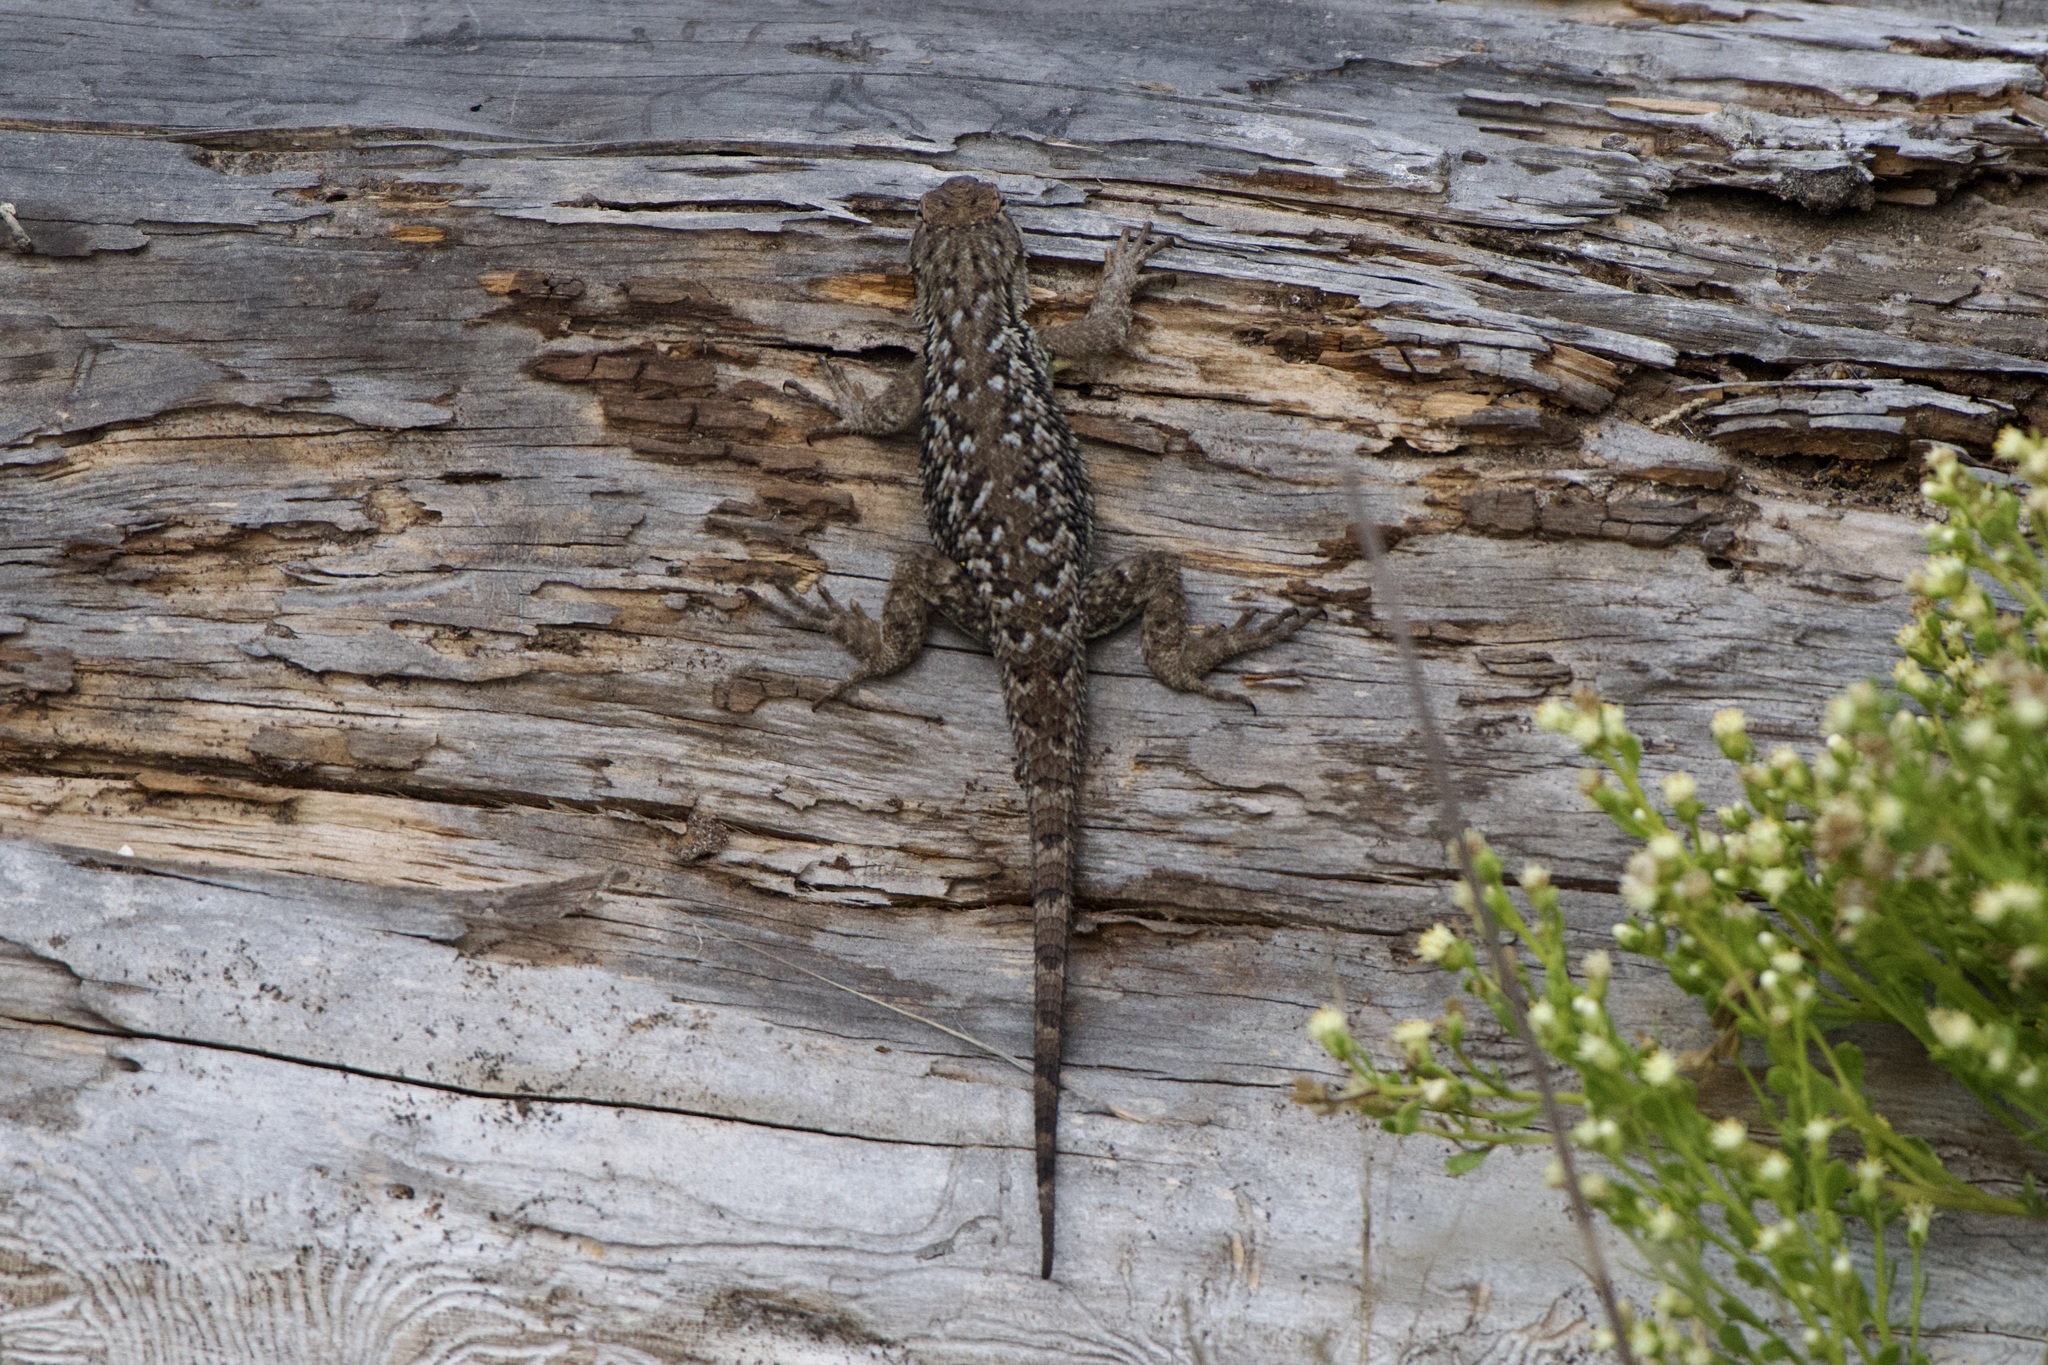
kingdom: Animalia
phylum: Chordata
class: Squamata
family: Phrynosomatidae
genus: Sceloporus
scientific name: Sceloporus occidentalis
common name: Western fence lizard
